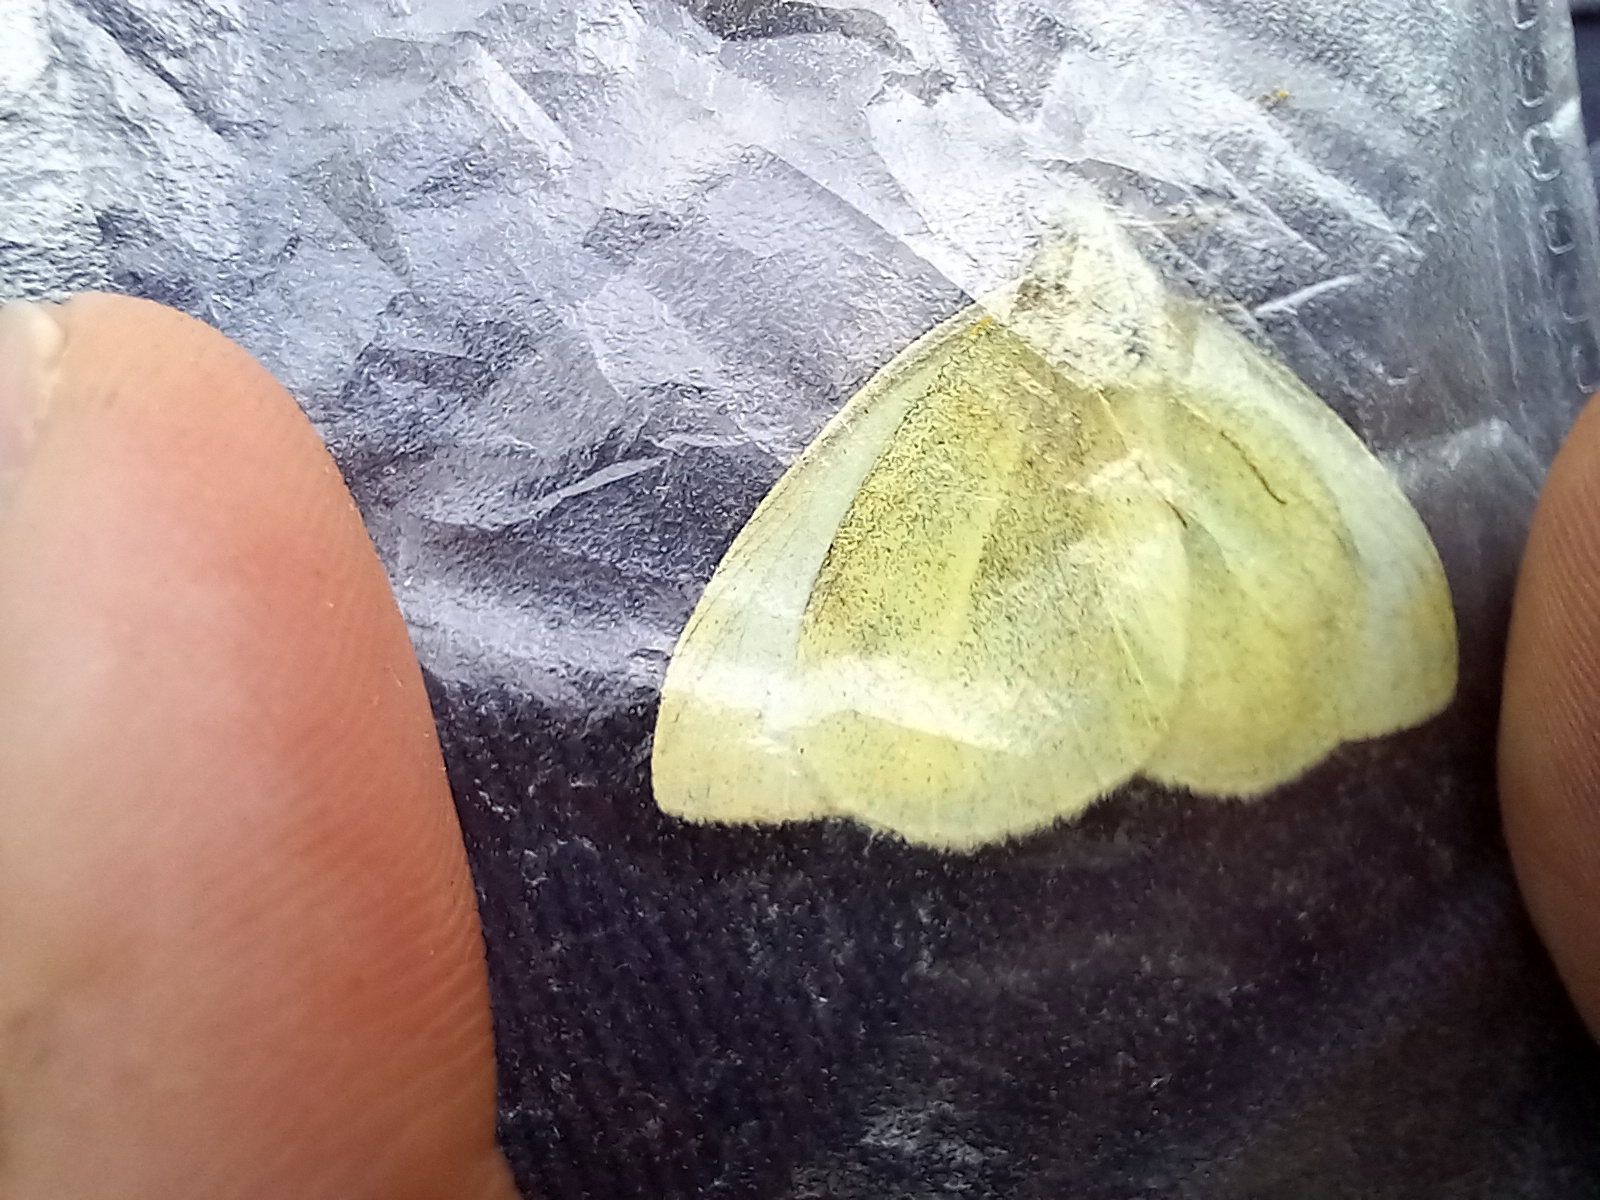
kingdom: Animalia
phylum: Arthropoda
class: Insecta
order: Lepidoptera
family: Pieridae
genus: Pieris
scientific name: Pieris rapae
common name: Small white
